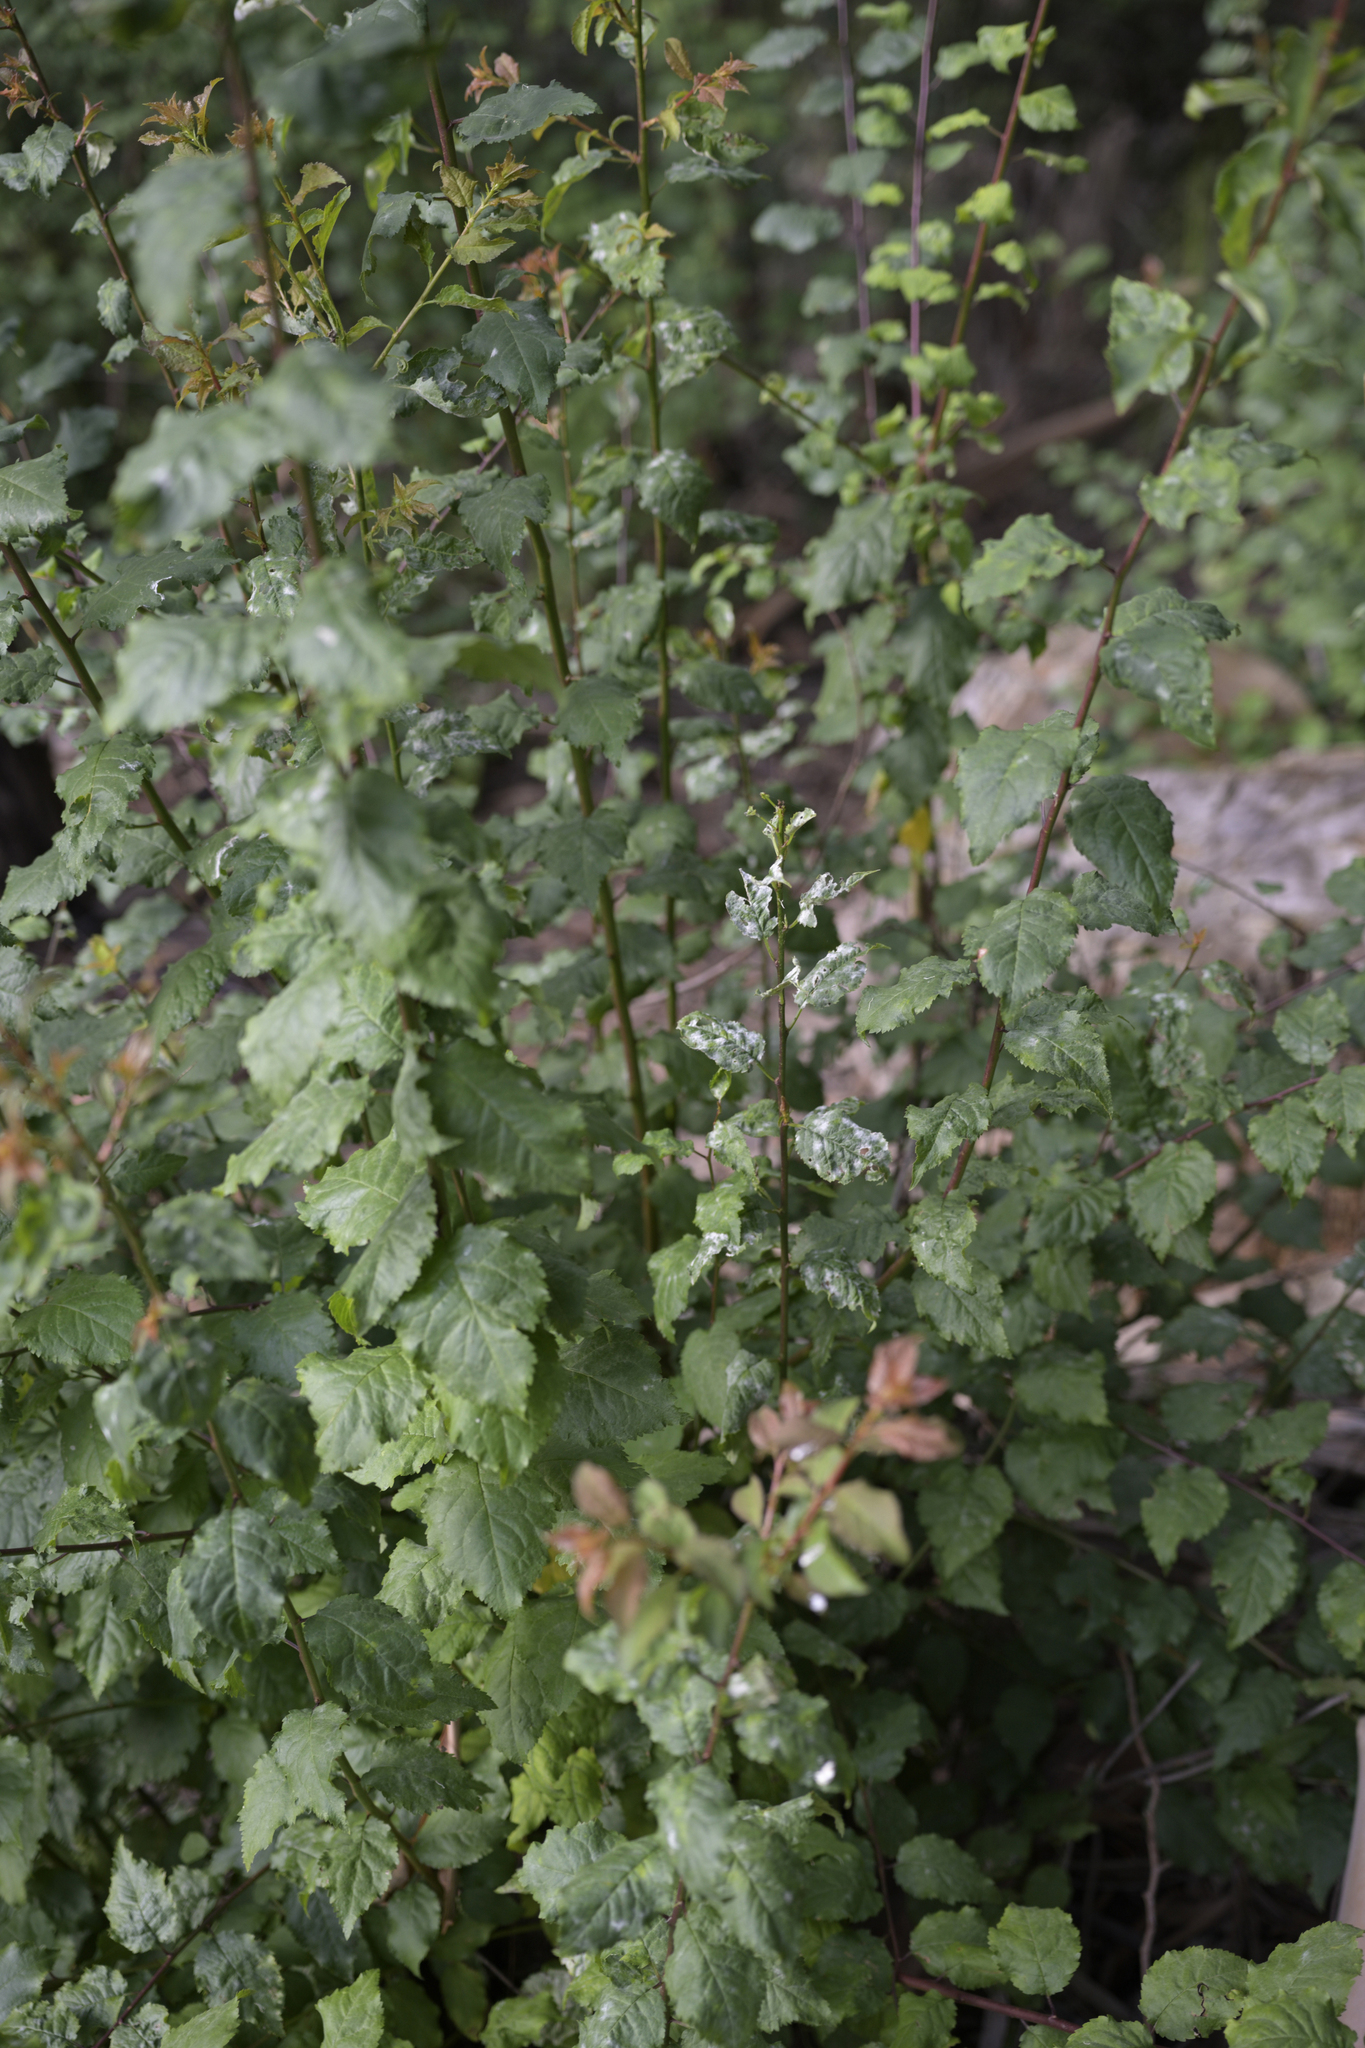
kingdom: Fungi
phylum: Ascomycota
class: Leotiomycetes
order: Helotiales
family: Erysiphaceae
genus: Podosphaera
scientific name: Podosphaera ampla
